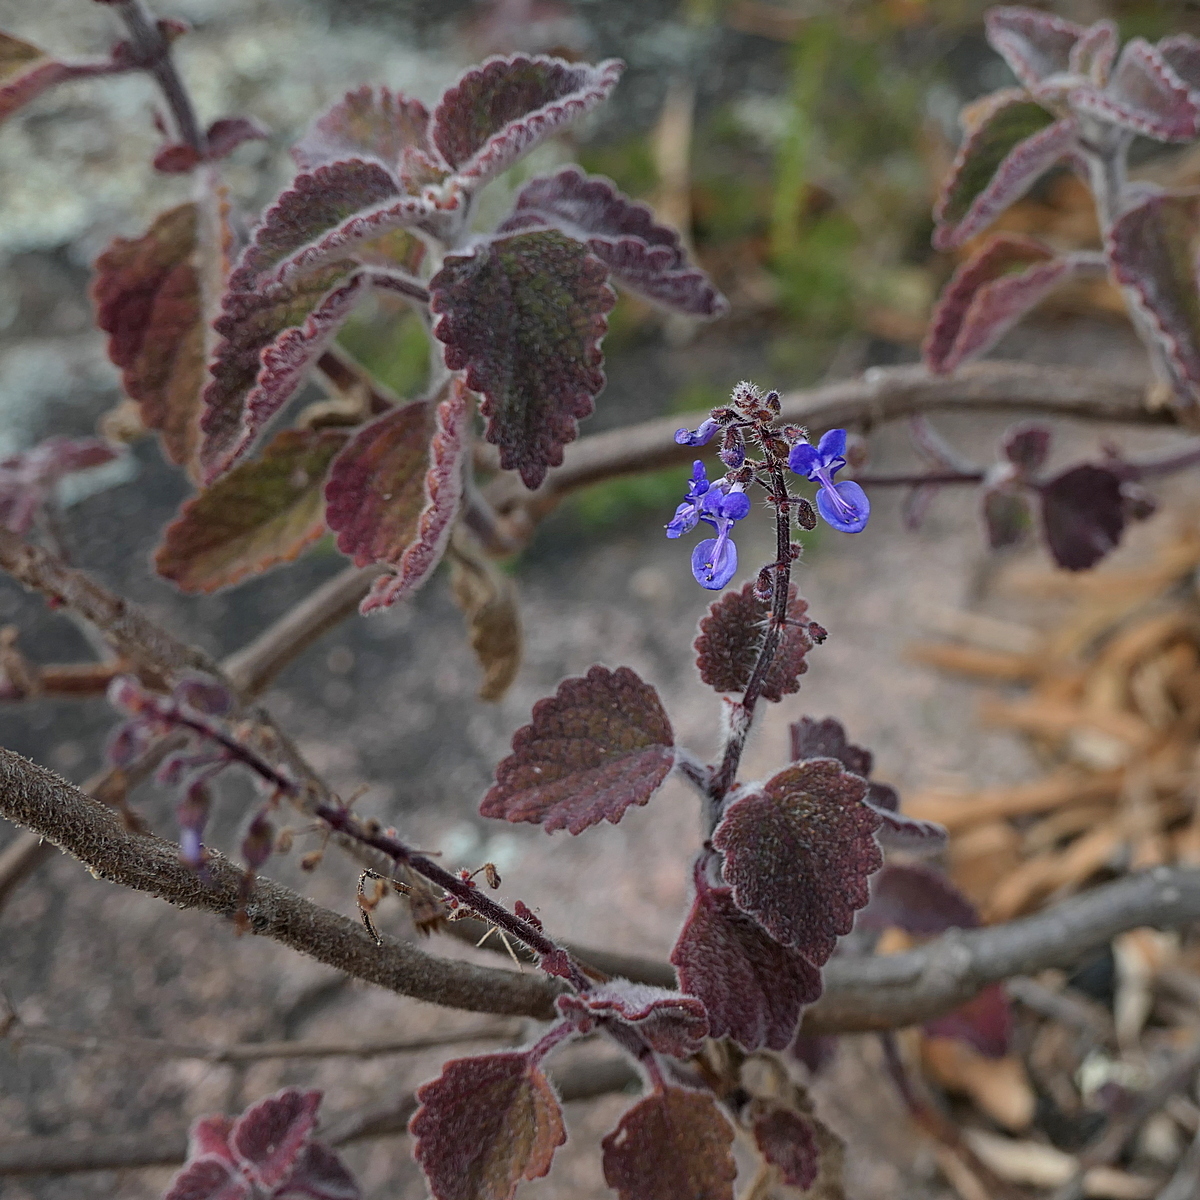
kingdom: Plantae
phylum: Tracheophyta
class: Magnoliopsida
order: Lamiales
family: Lamiaceae
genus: Coleus
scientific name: Coleus graveolens
